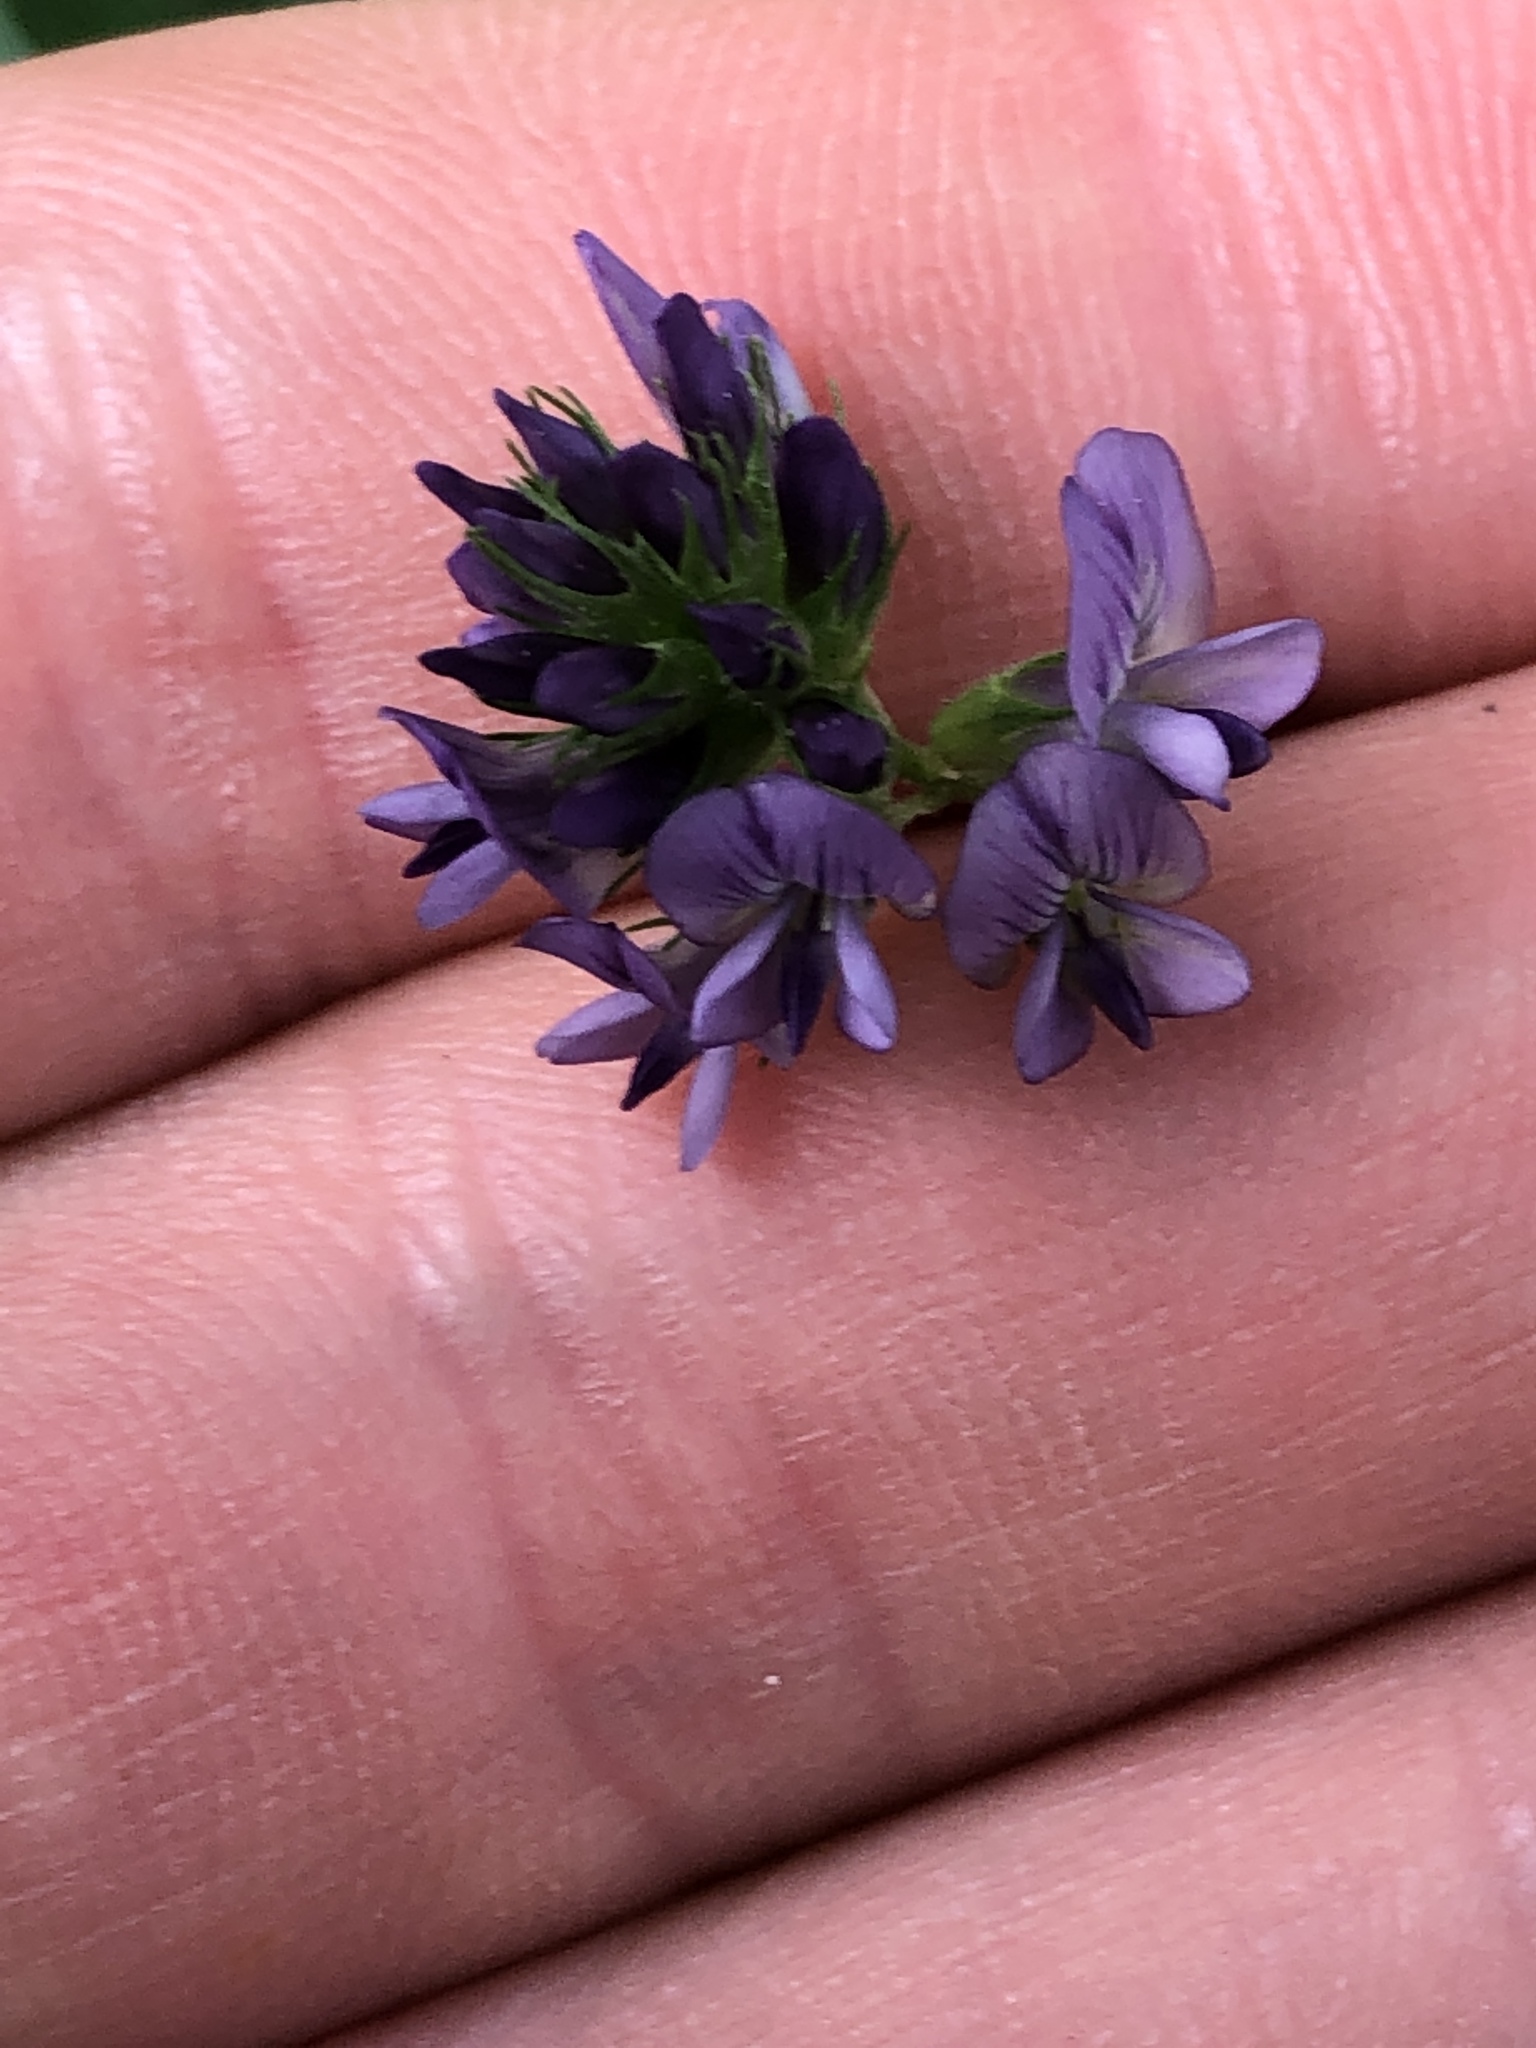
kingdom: Plantae
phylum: Tracheophyta
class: Magnoliopsida
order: Fabales
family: Fabaceae
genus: Medicago
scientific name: Medicago sativa
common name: Alfalfa
